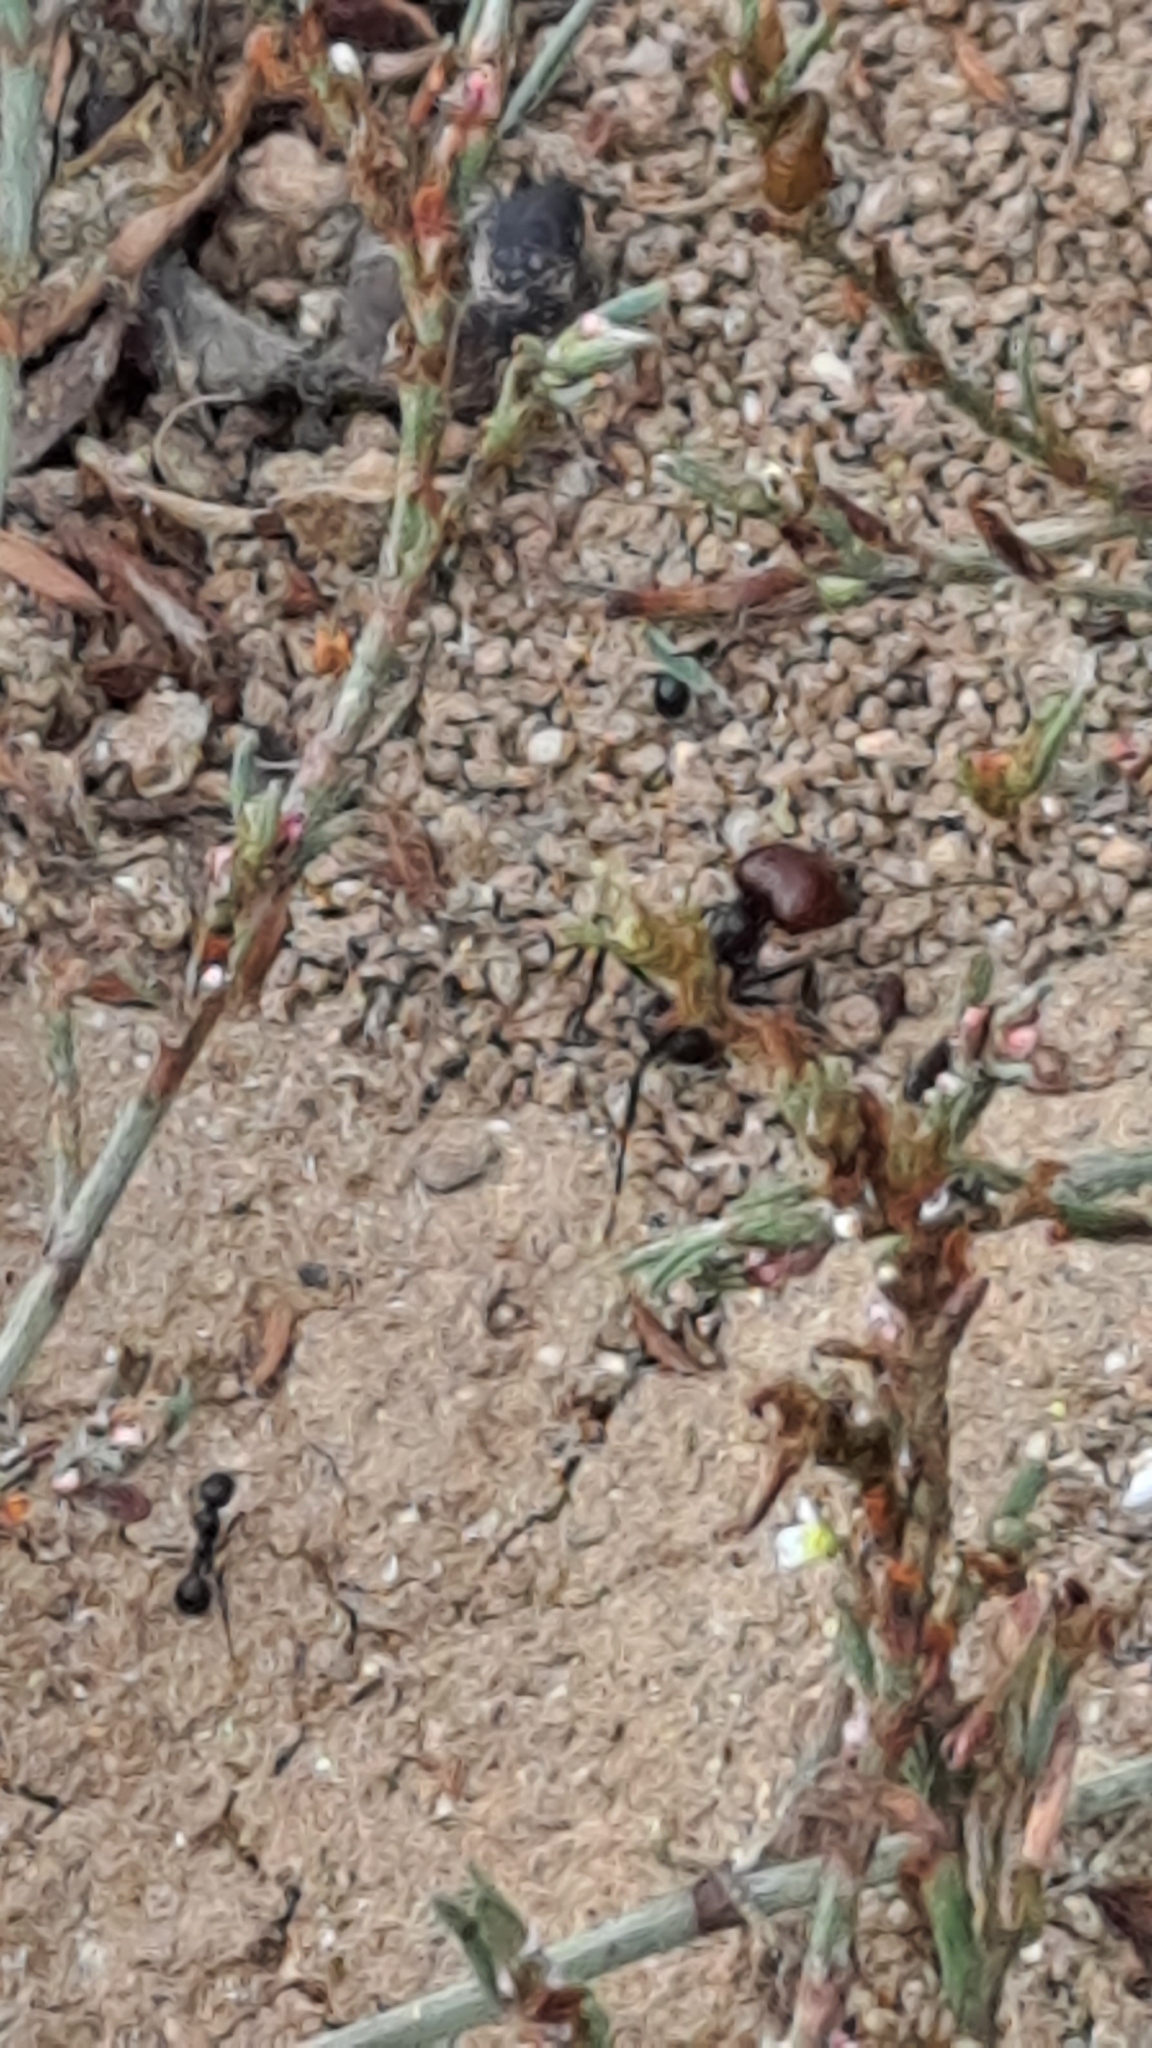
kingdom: Animalia
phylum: Arthropoda
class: Insecta
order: Hymenoptera
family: Formicidae
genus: Messor
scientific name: Messor barbarus
